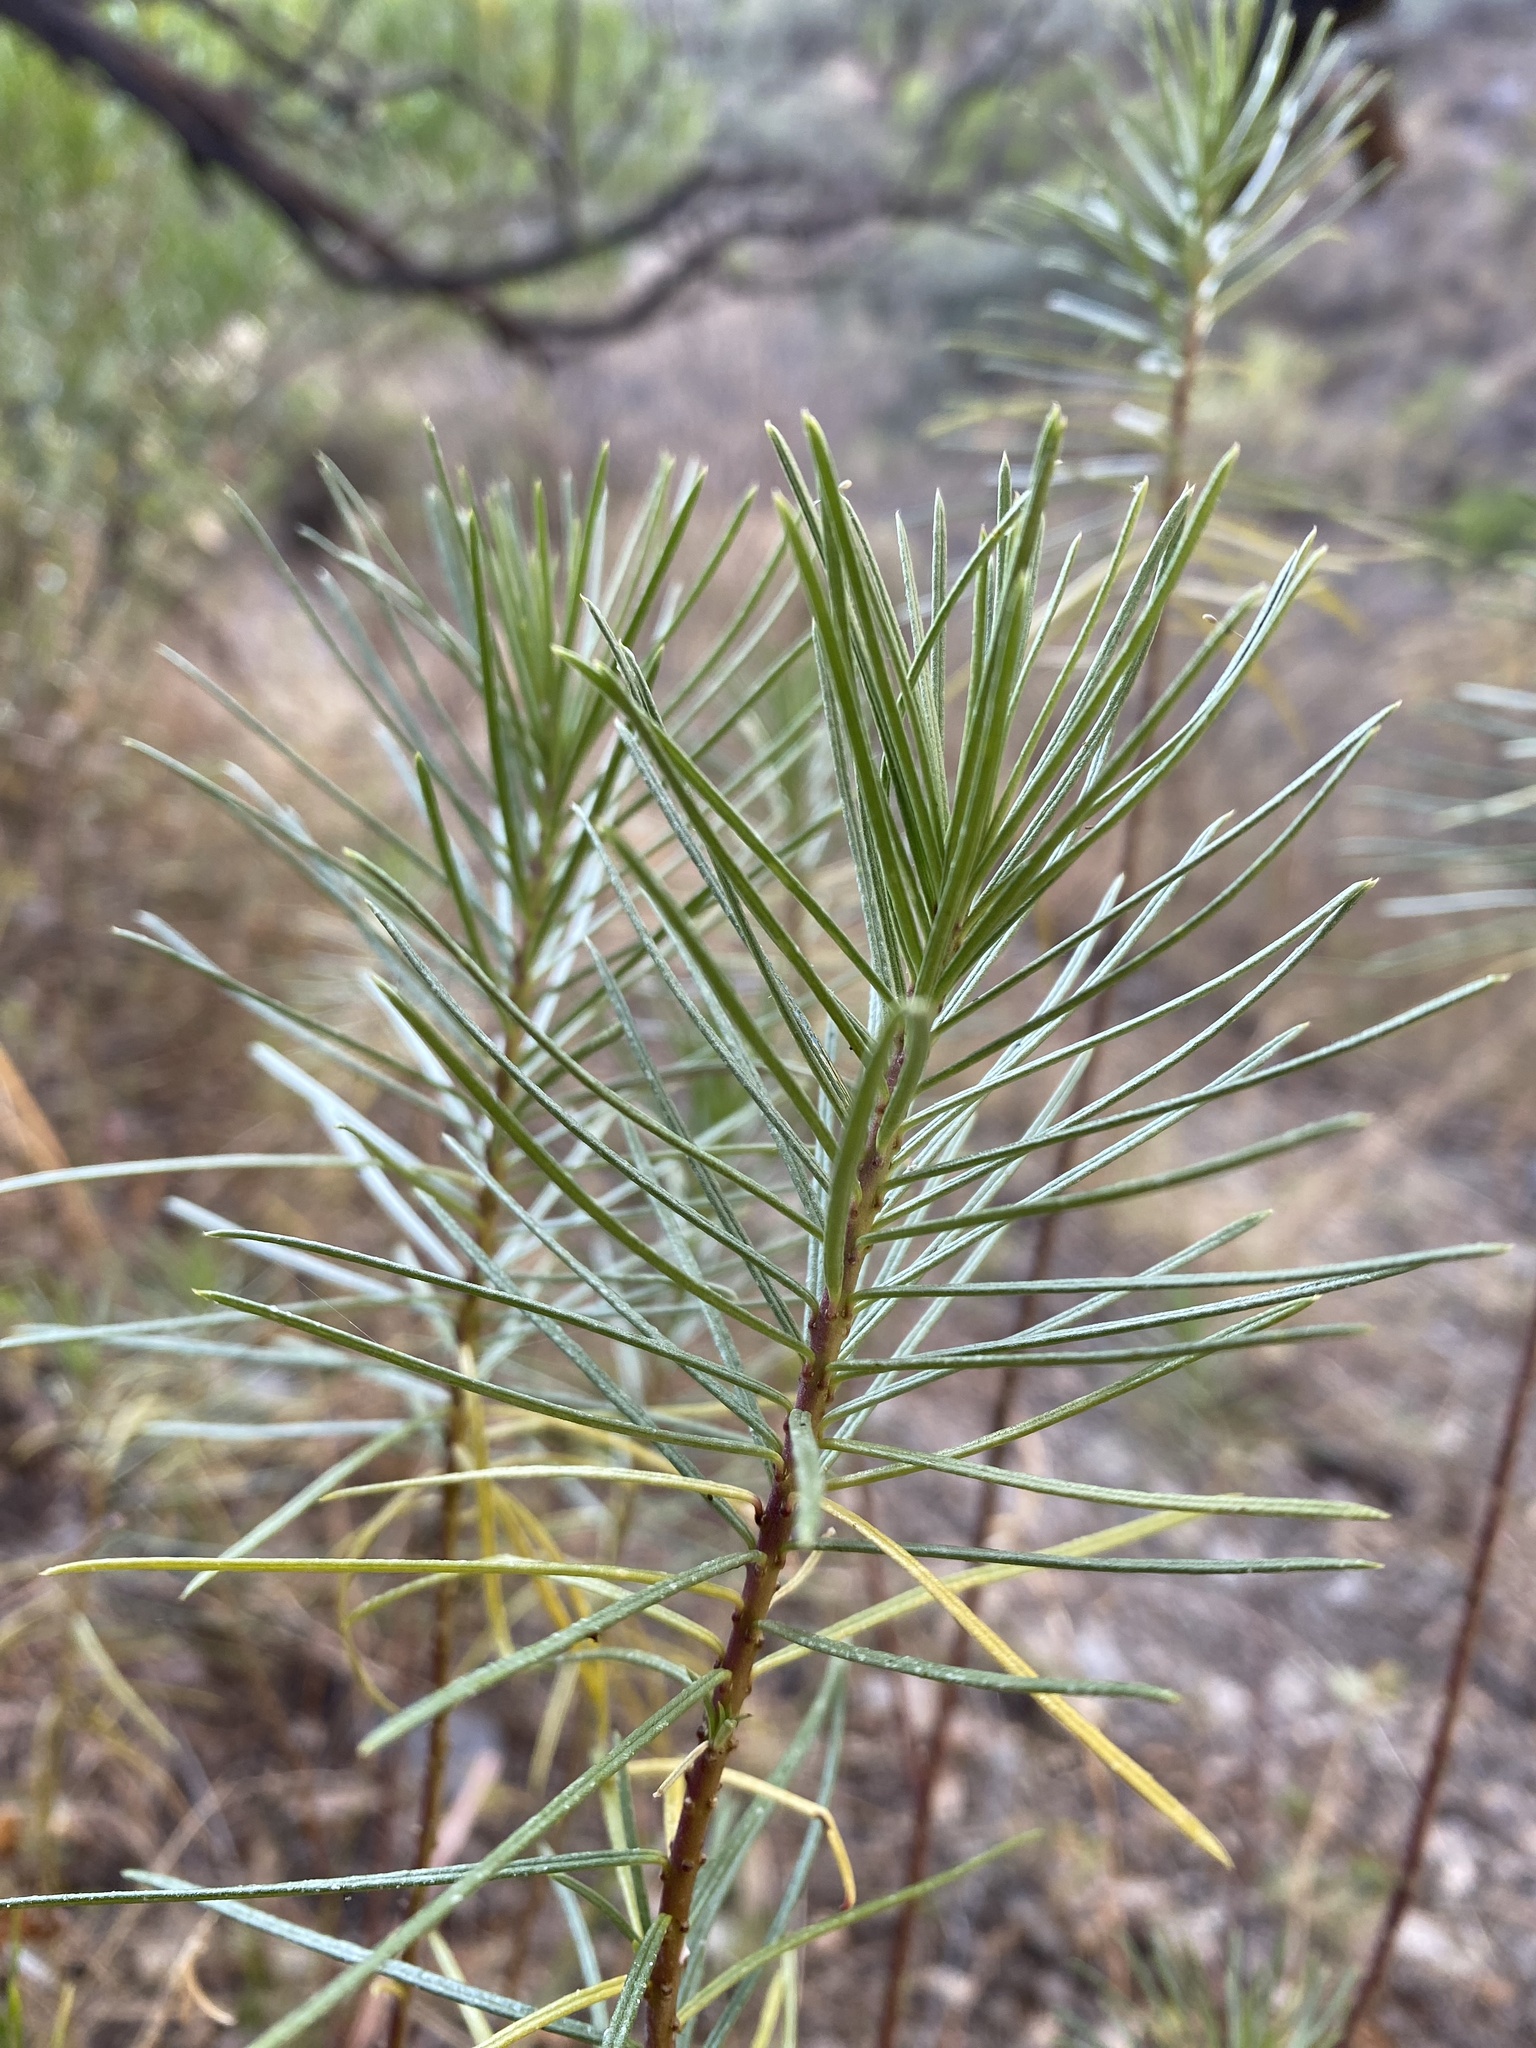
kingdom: Plantae
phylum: Tracheophyta
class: Magnoliopsida
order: Gentianales
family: Apocynaceae
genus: Asclepias
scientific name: Asclepias linaria
